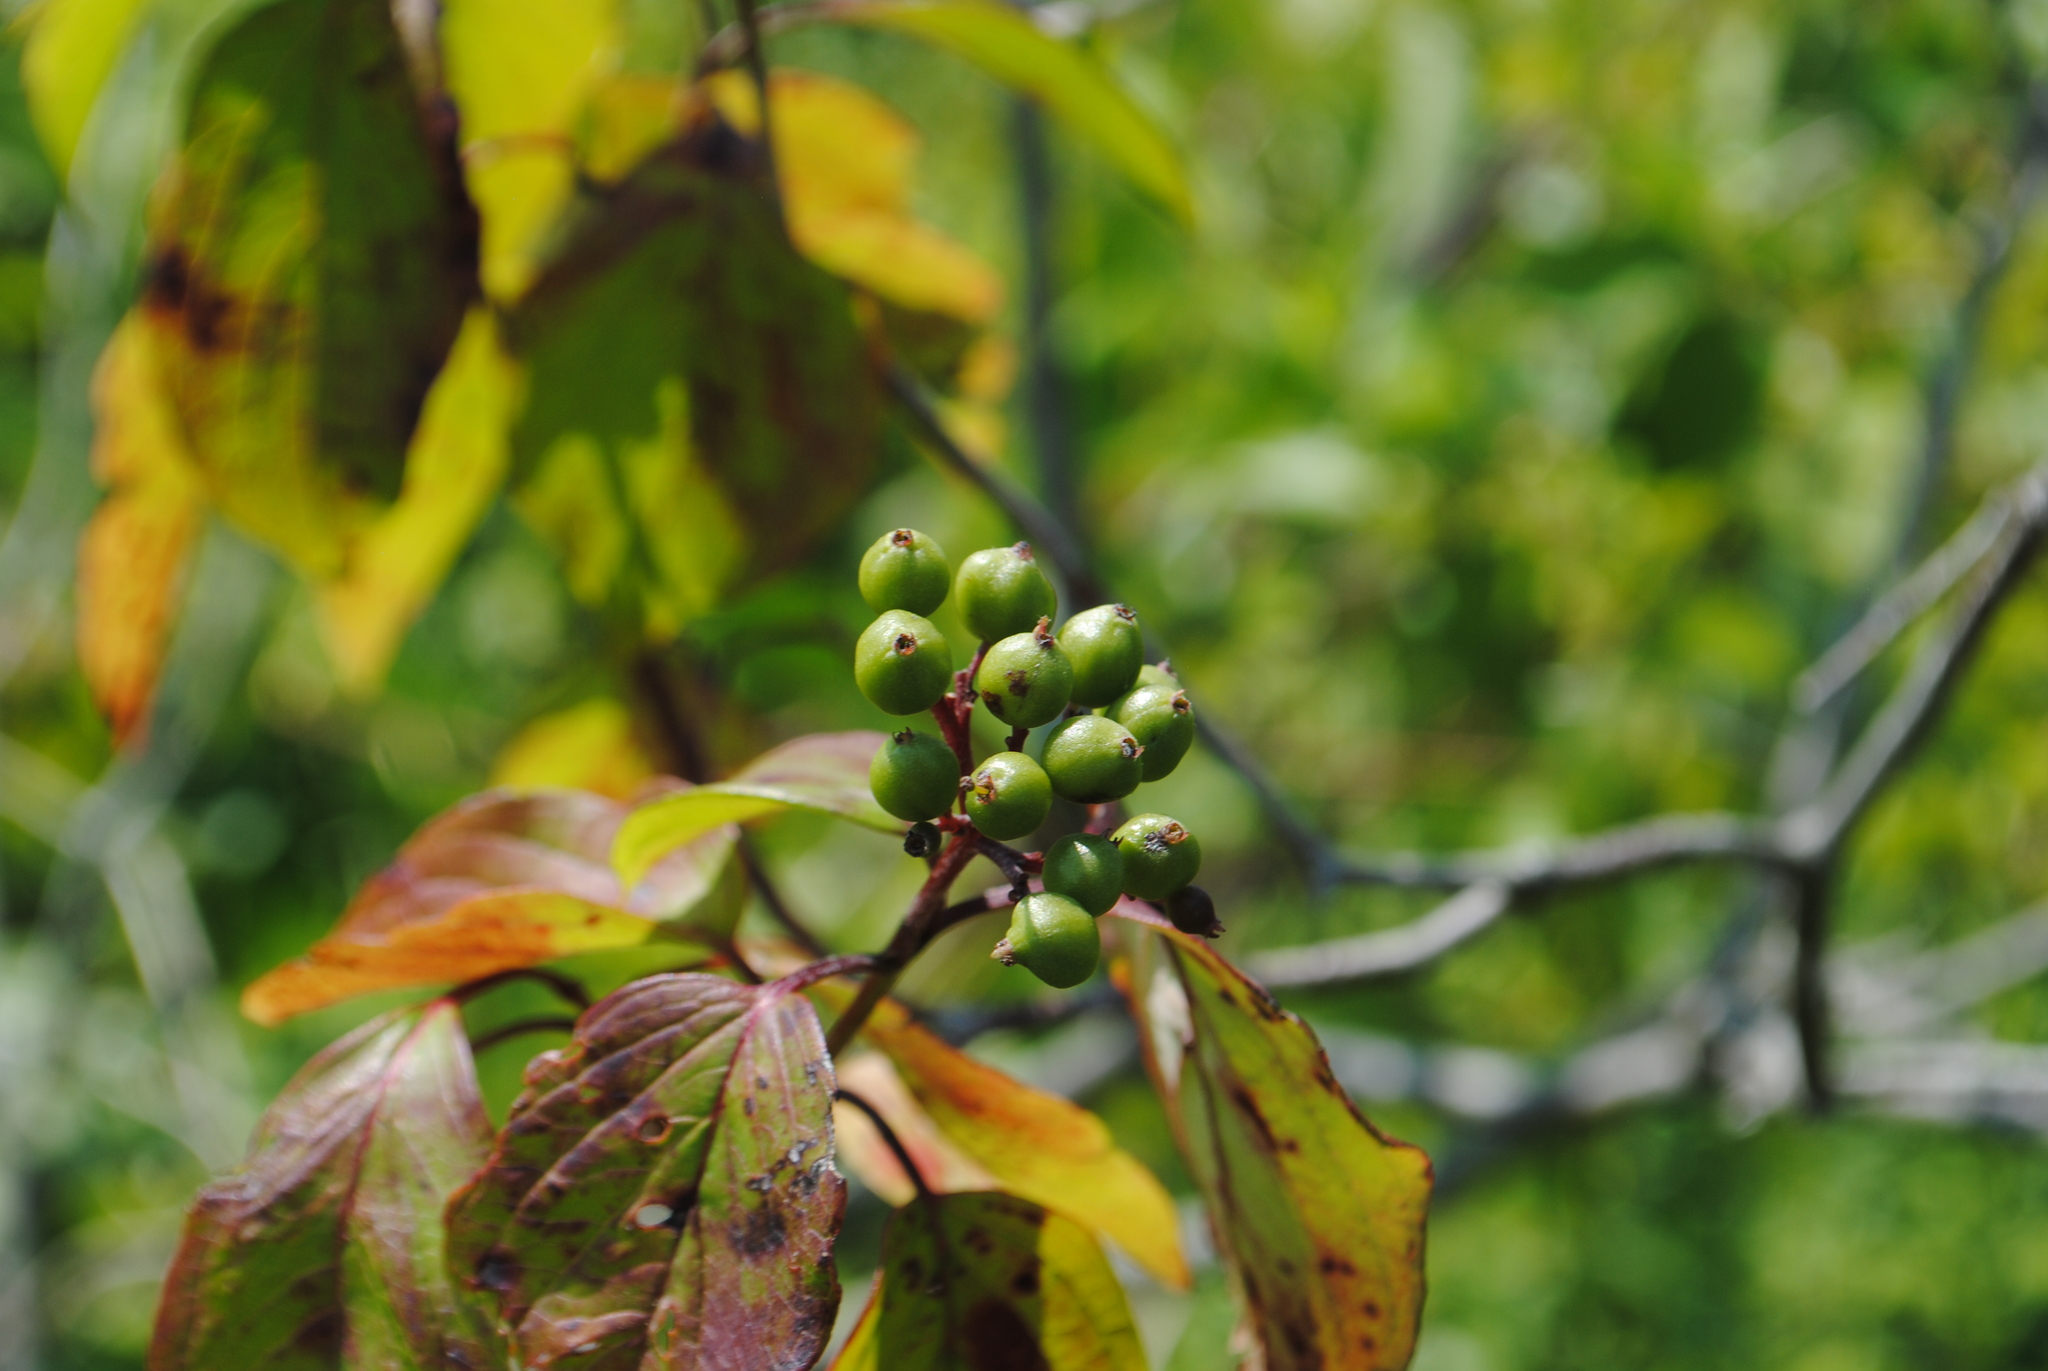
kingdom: Plantae
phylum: Tracheophyta
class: Magnoliopsida
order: Cornales
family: Cornaceae
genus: Cornus
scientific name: Cornus amomum
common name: Silky dogwood
